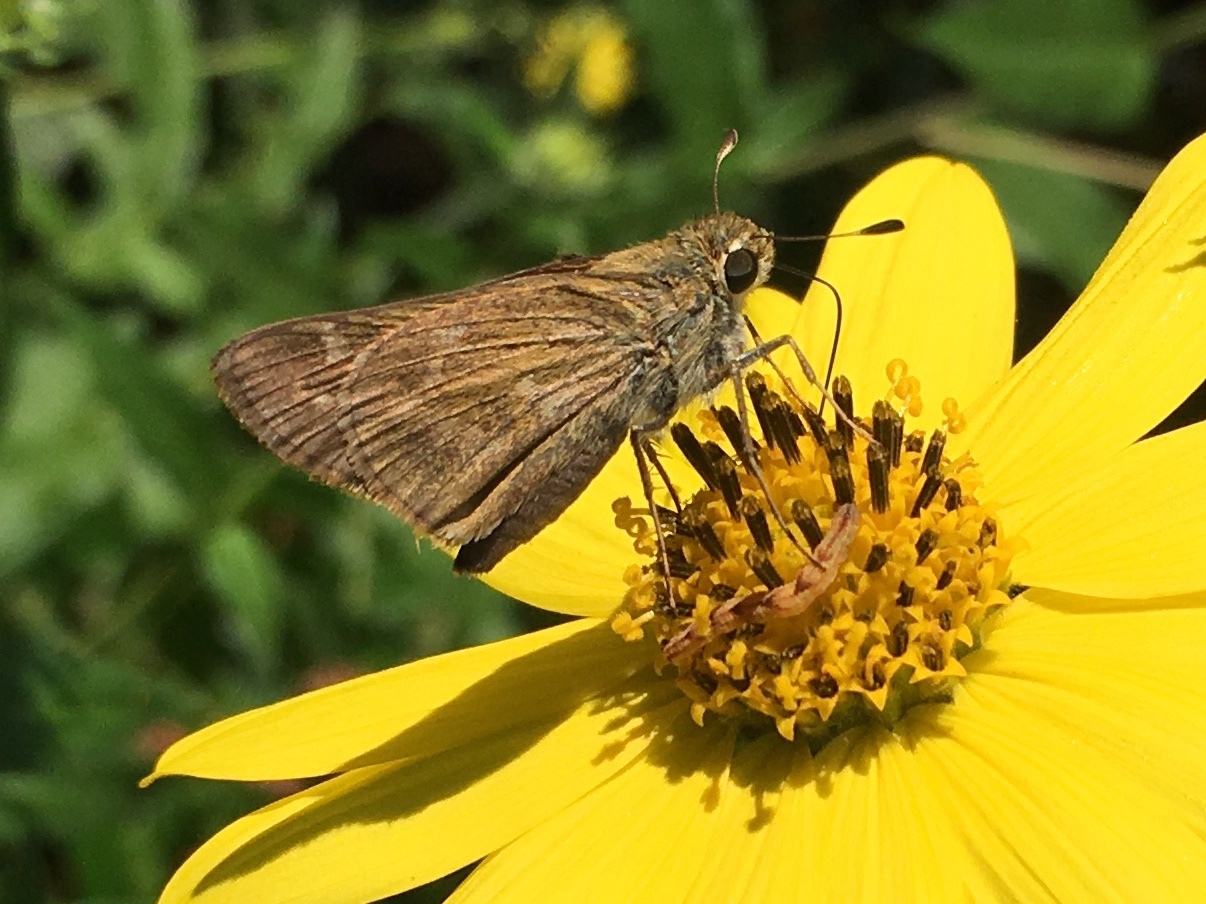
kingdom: Animalia
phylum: Arthropoda
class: Insecta
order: Lepidoptera
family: Hesperiidae
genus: Atalopedes
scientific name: Atalopedes
